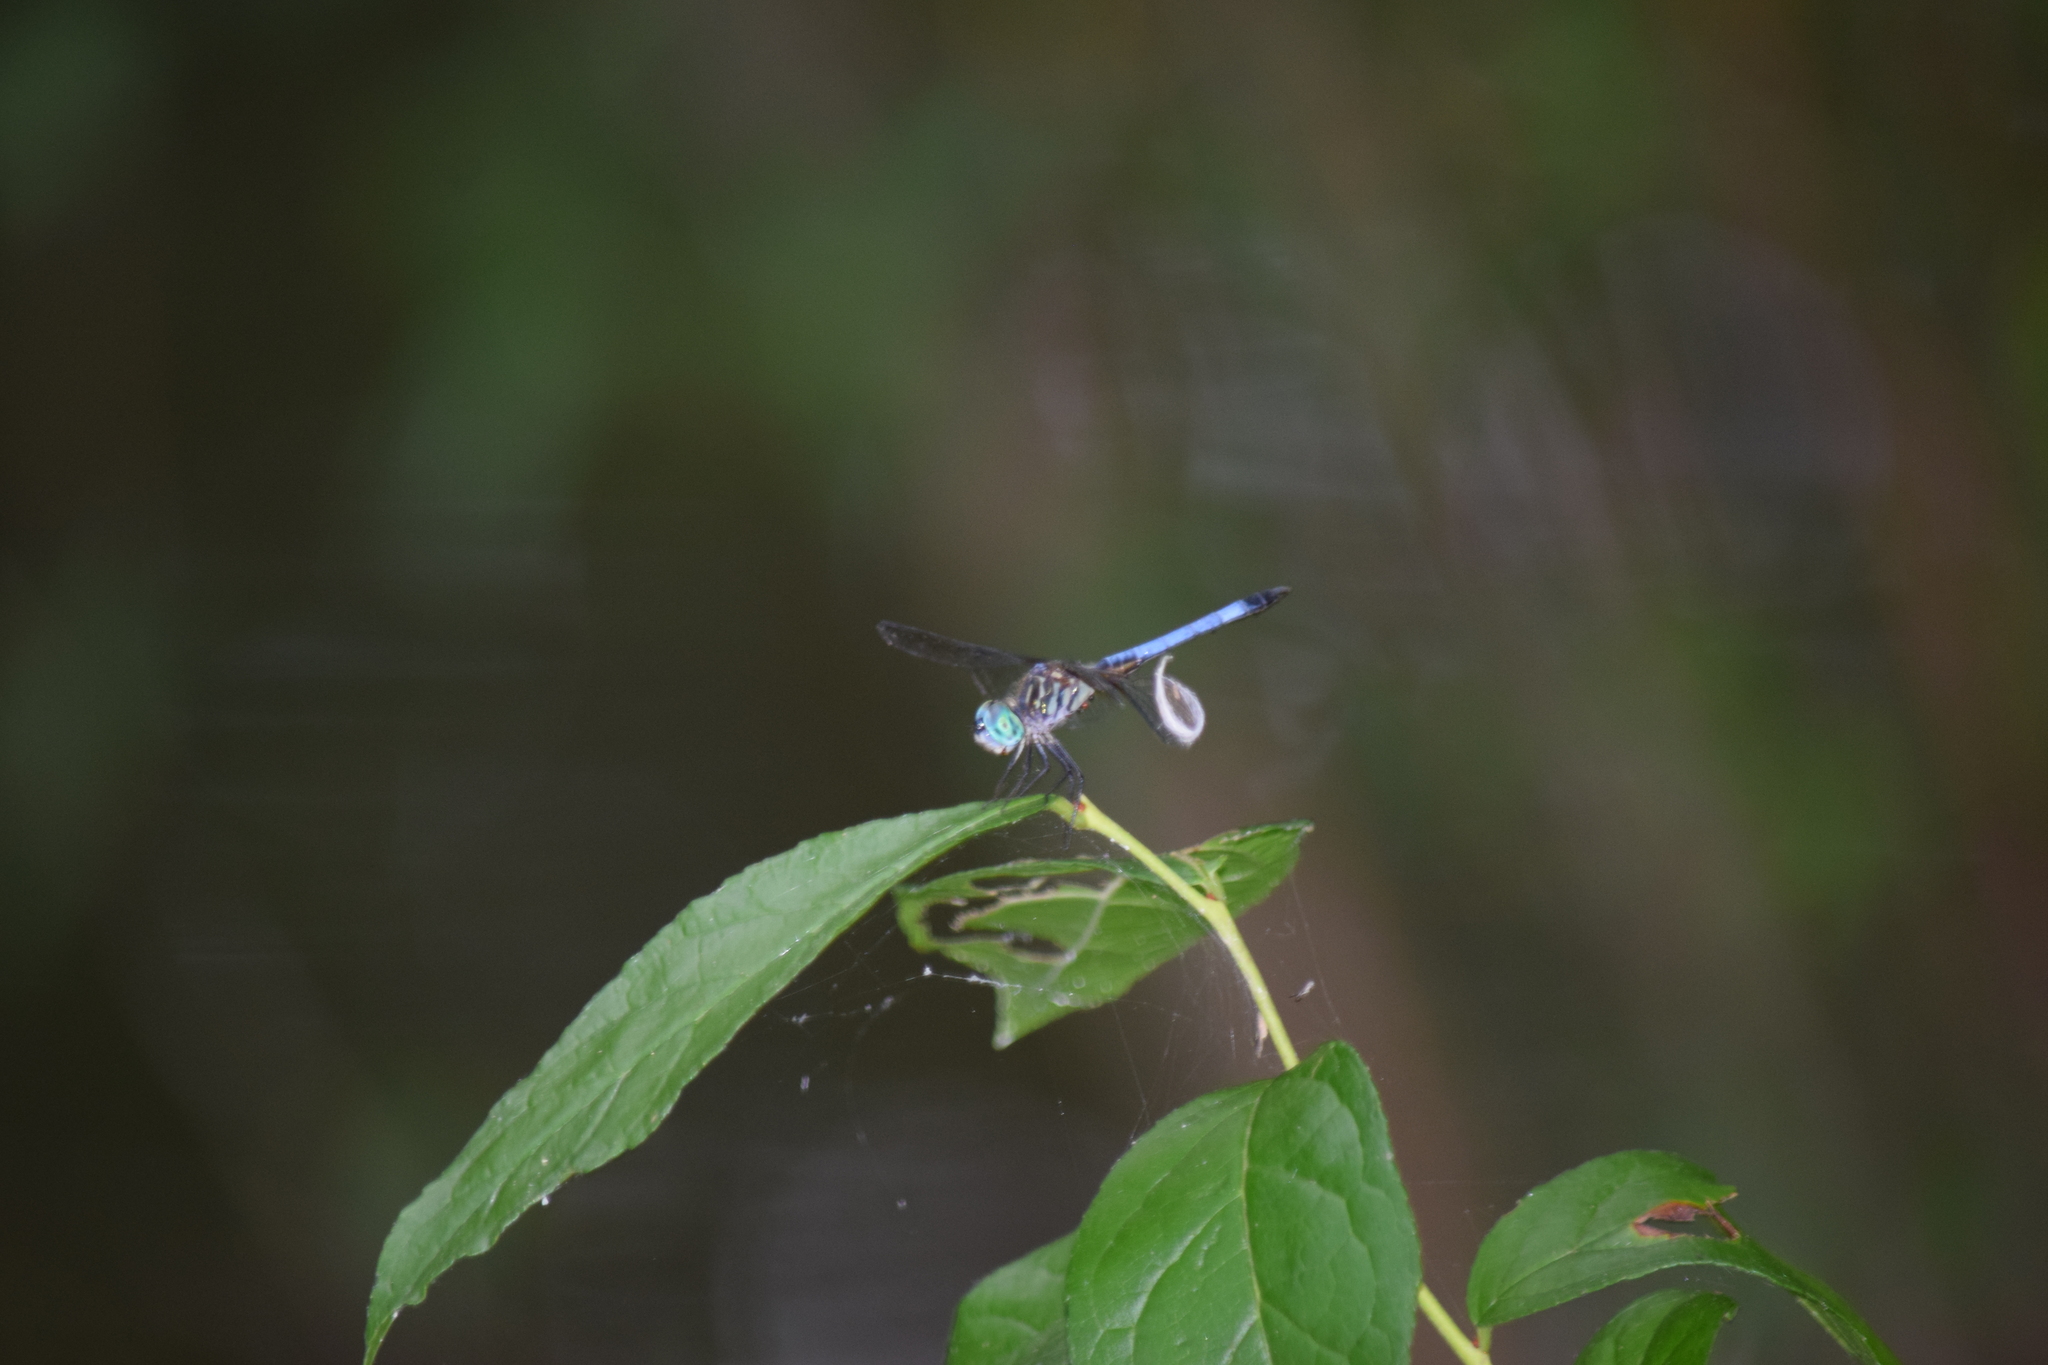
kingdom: Animalia
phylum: Arthropoda
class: Insecta
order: Odonata
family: Libellulidae
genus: Pachydiplax
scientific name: Pachydiplax longipennis
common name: Blue dasher
